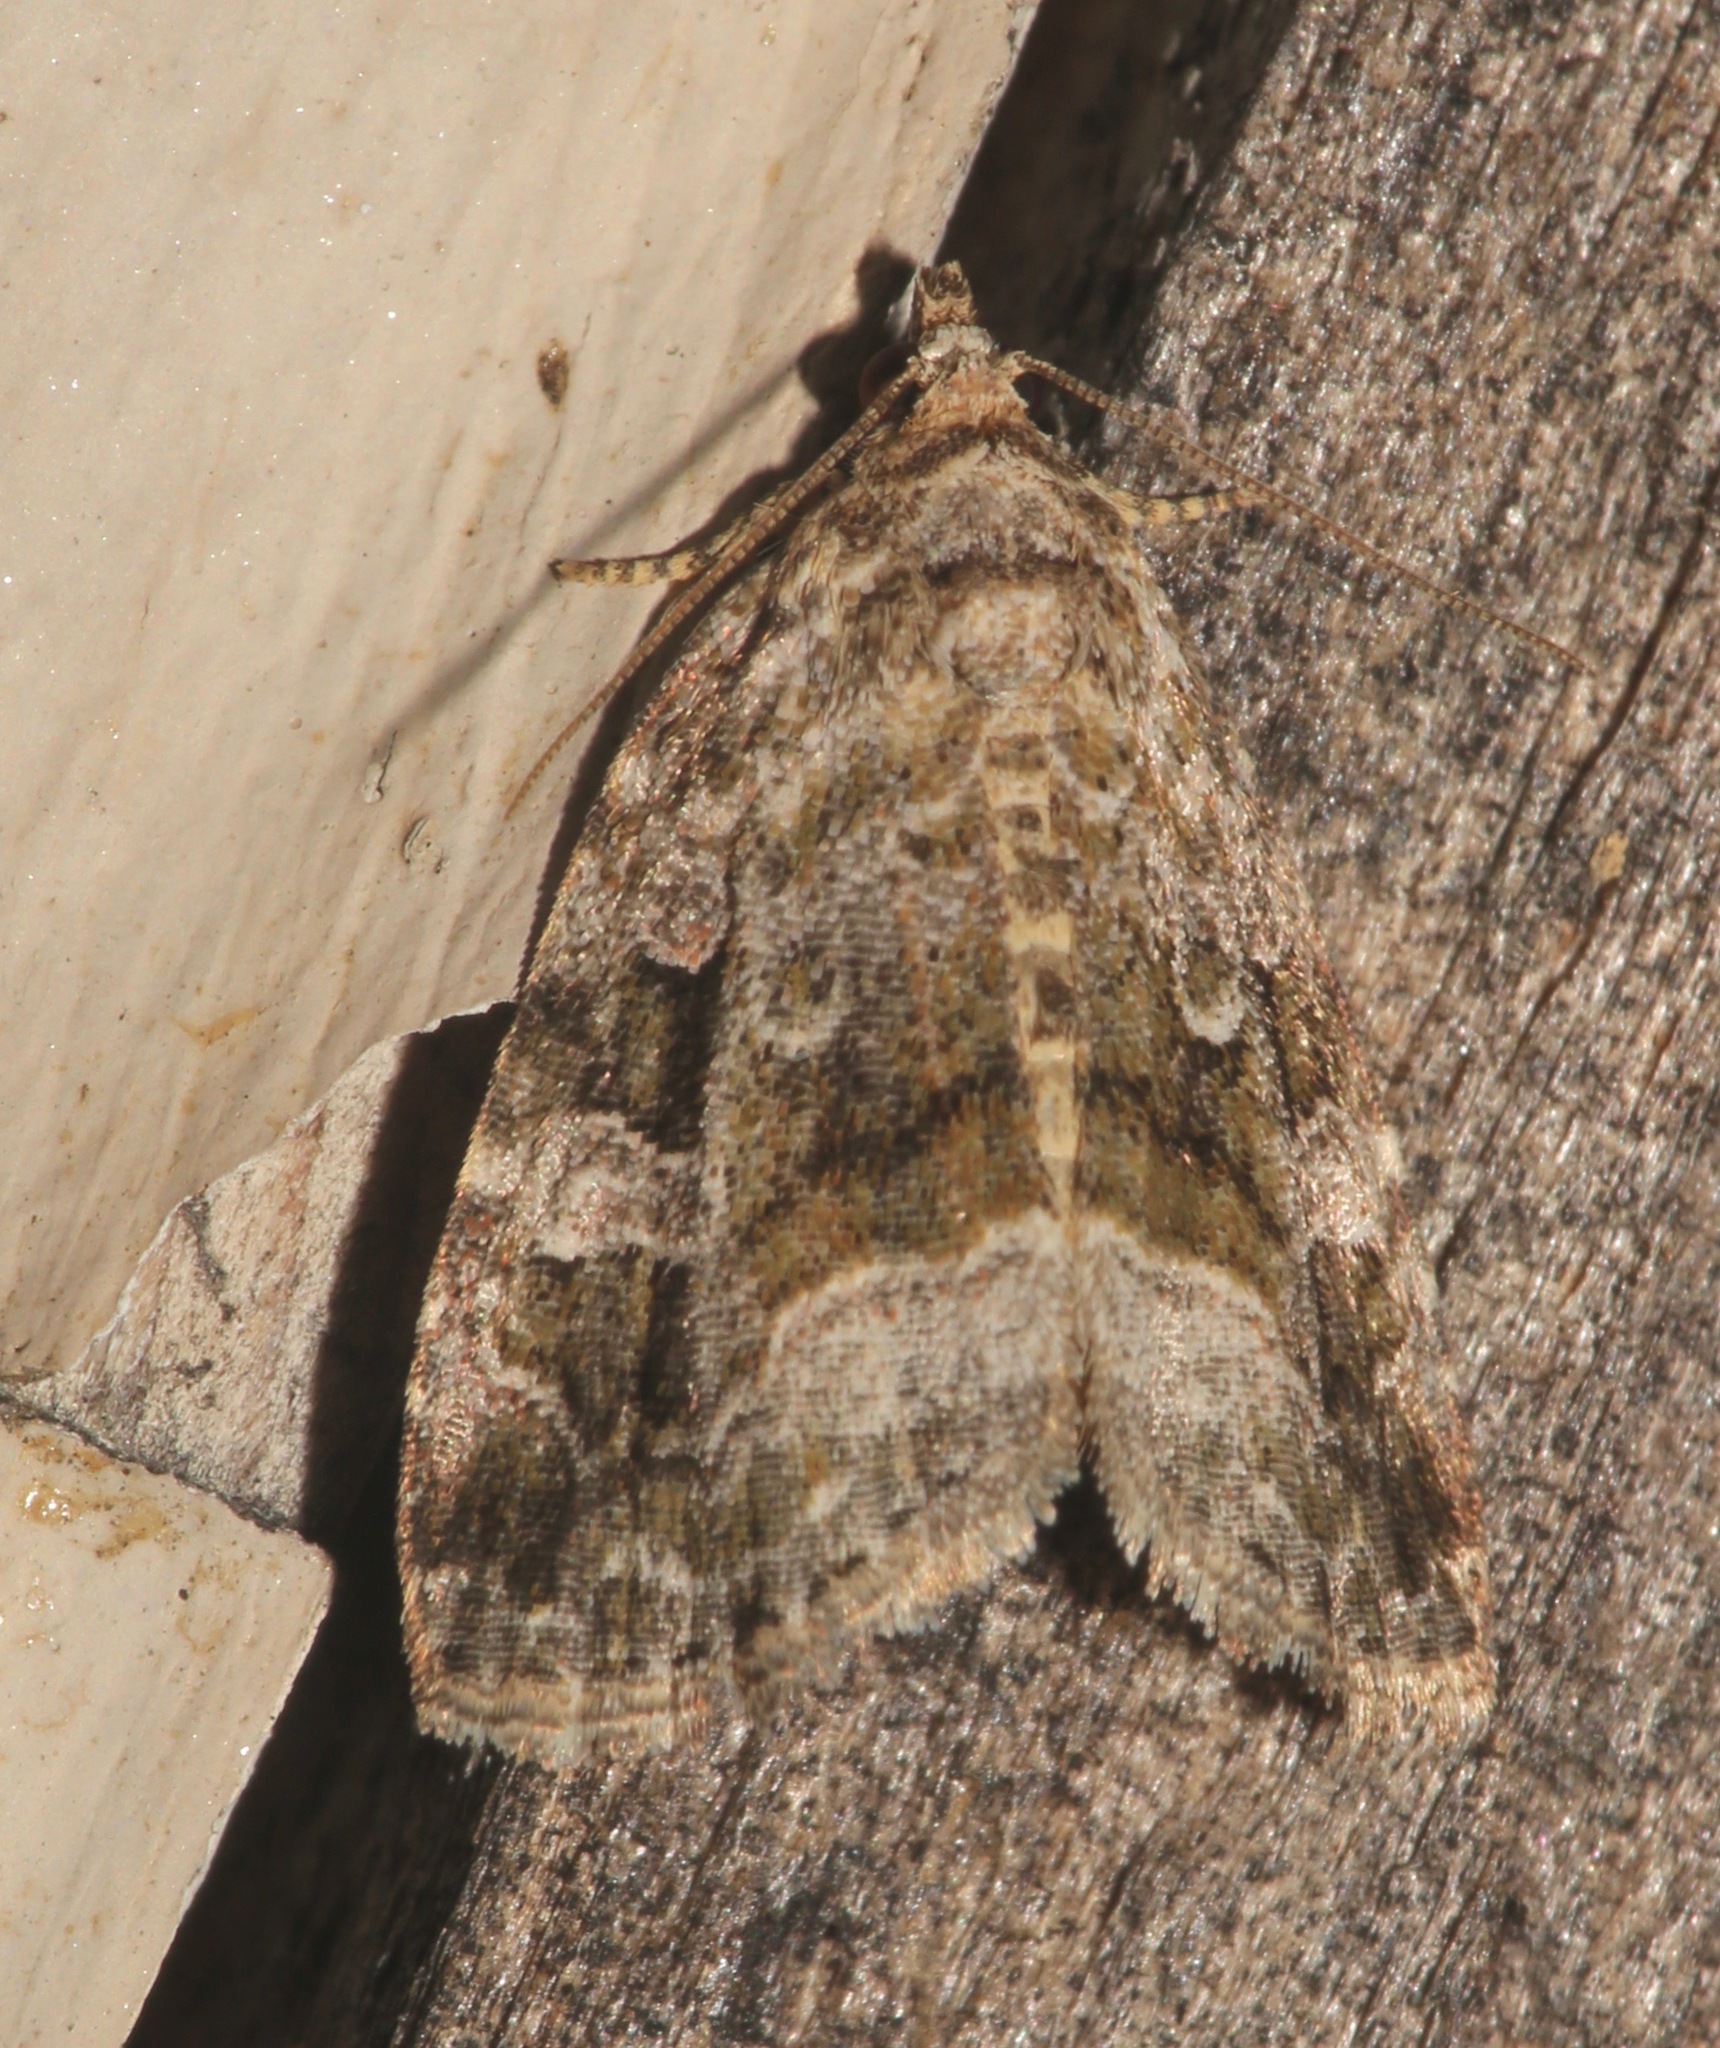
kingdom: Animalia
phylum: Arthropoda
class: Insecta
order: Lepidoptera
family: Noctuidae
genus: Protodeltote
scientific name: Protodeltote muscosula
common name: Large mossy glyph
